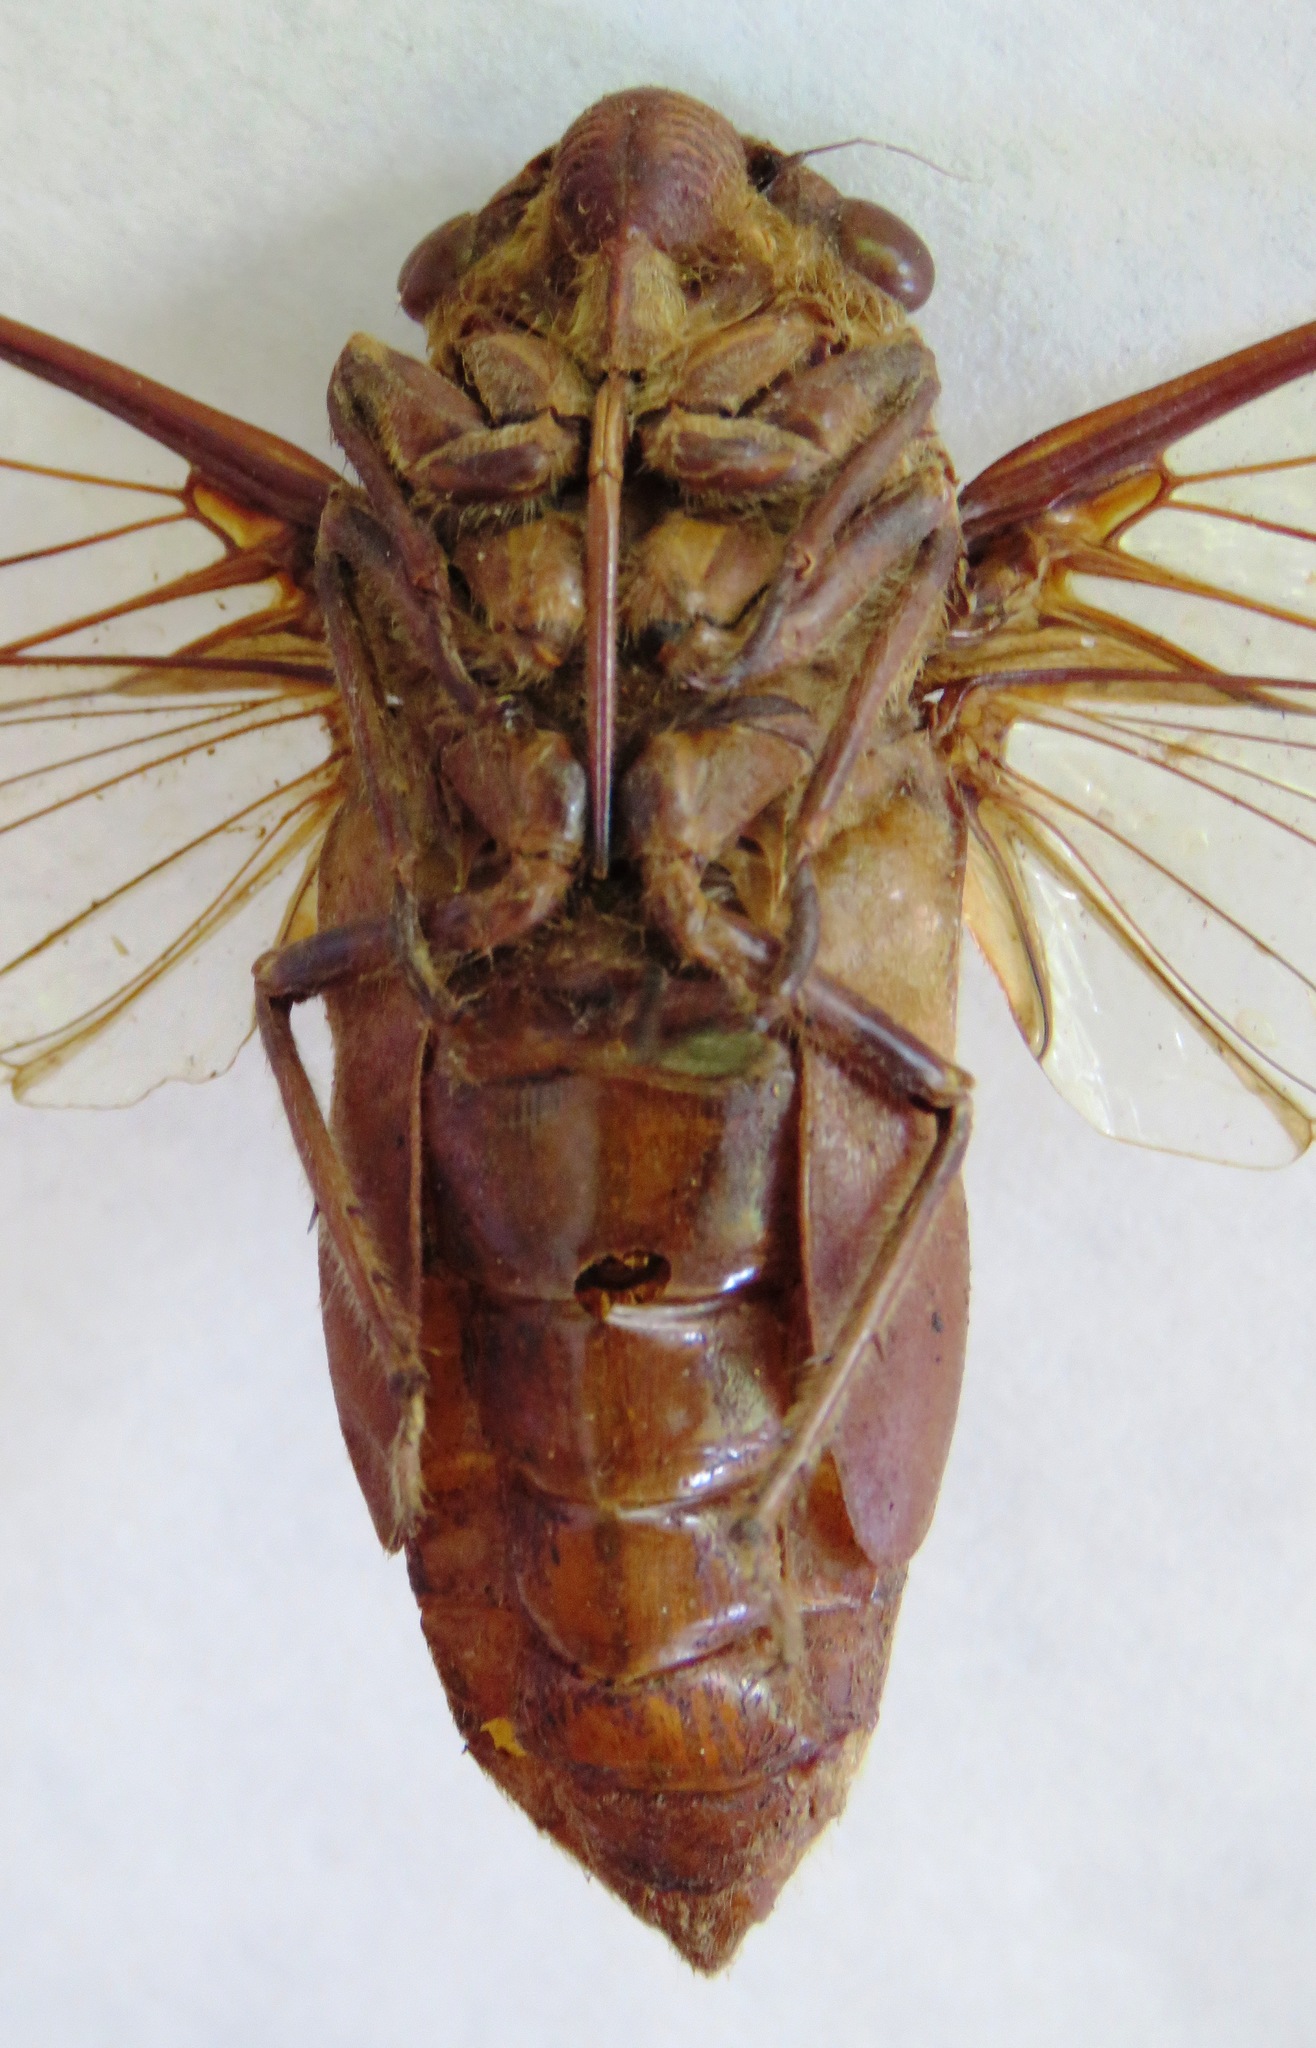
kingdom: Animalia
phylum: Arthropoda
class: Insecta
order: Hemiptera
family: Cicadidae
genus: Champaka
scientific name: Champaka spinosa
